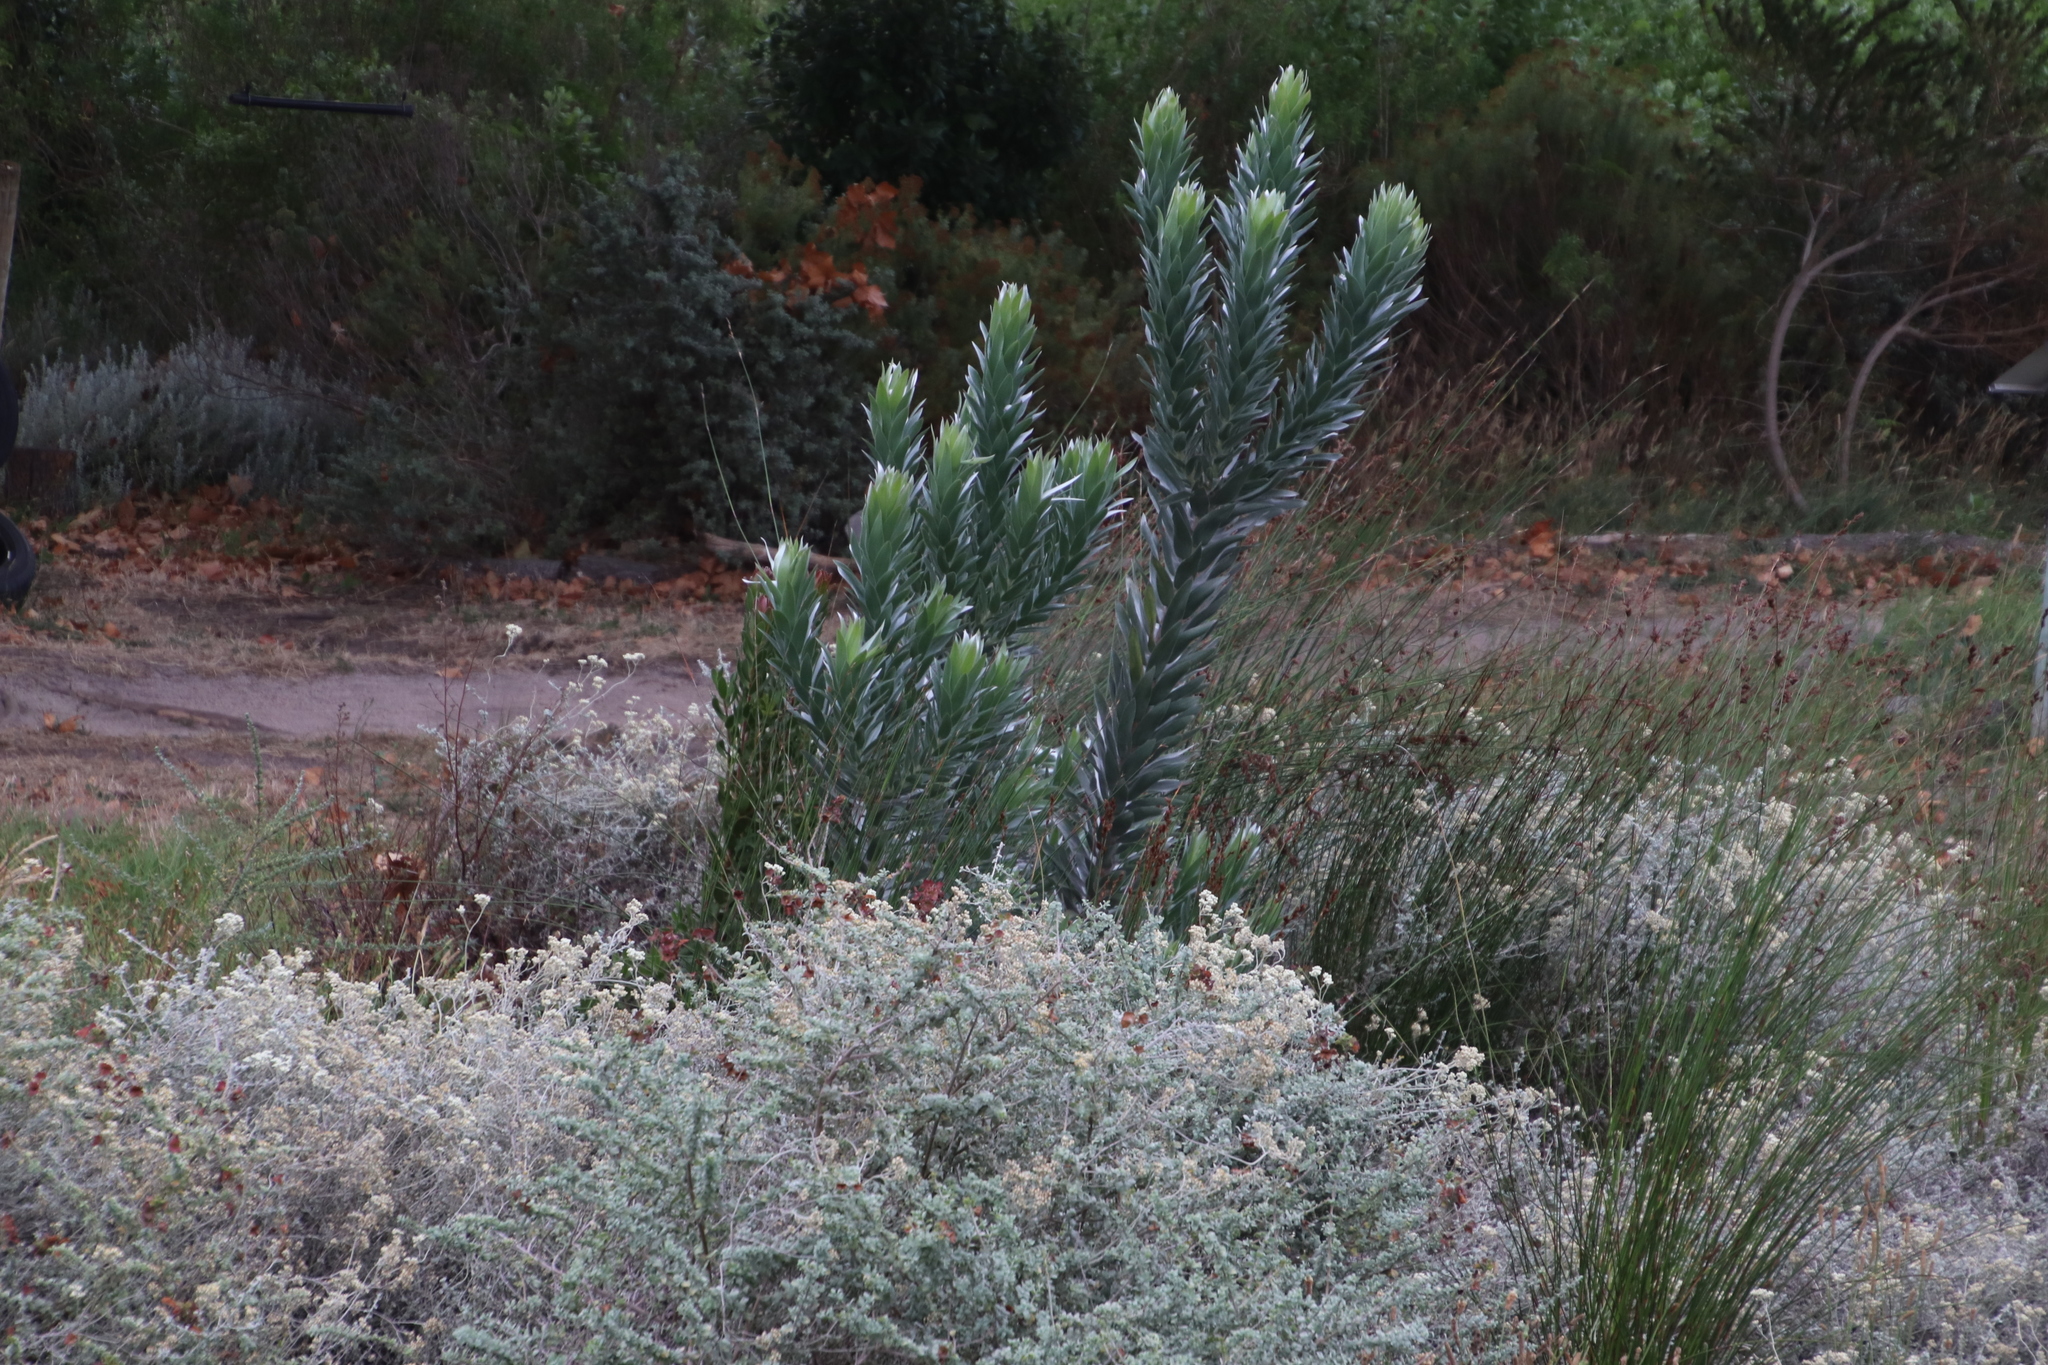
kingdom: Plantae
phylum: Tracheophyta
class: Magnoliopsida
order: Proteales
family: Proteaceae
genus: Leucadendron
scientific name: Leucadendron argenteum
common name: Cape silver tree
